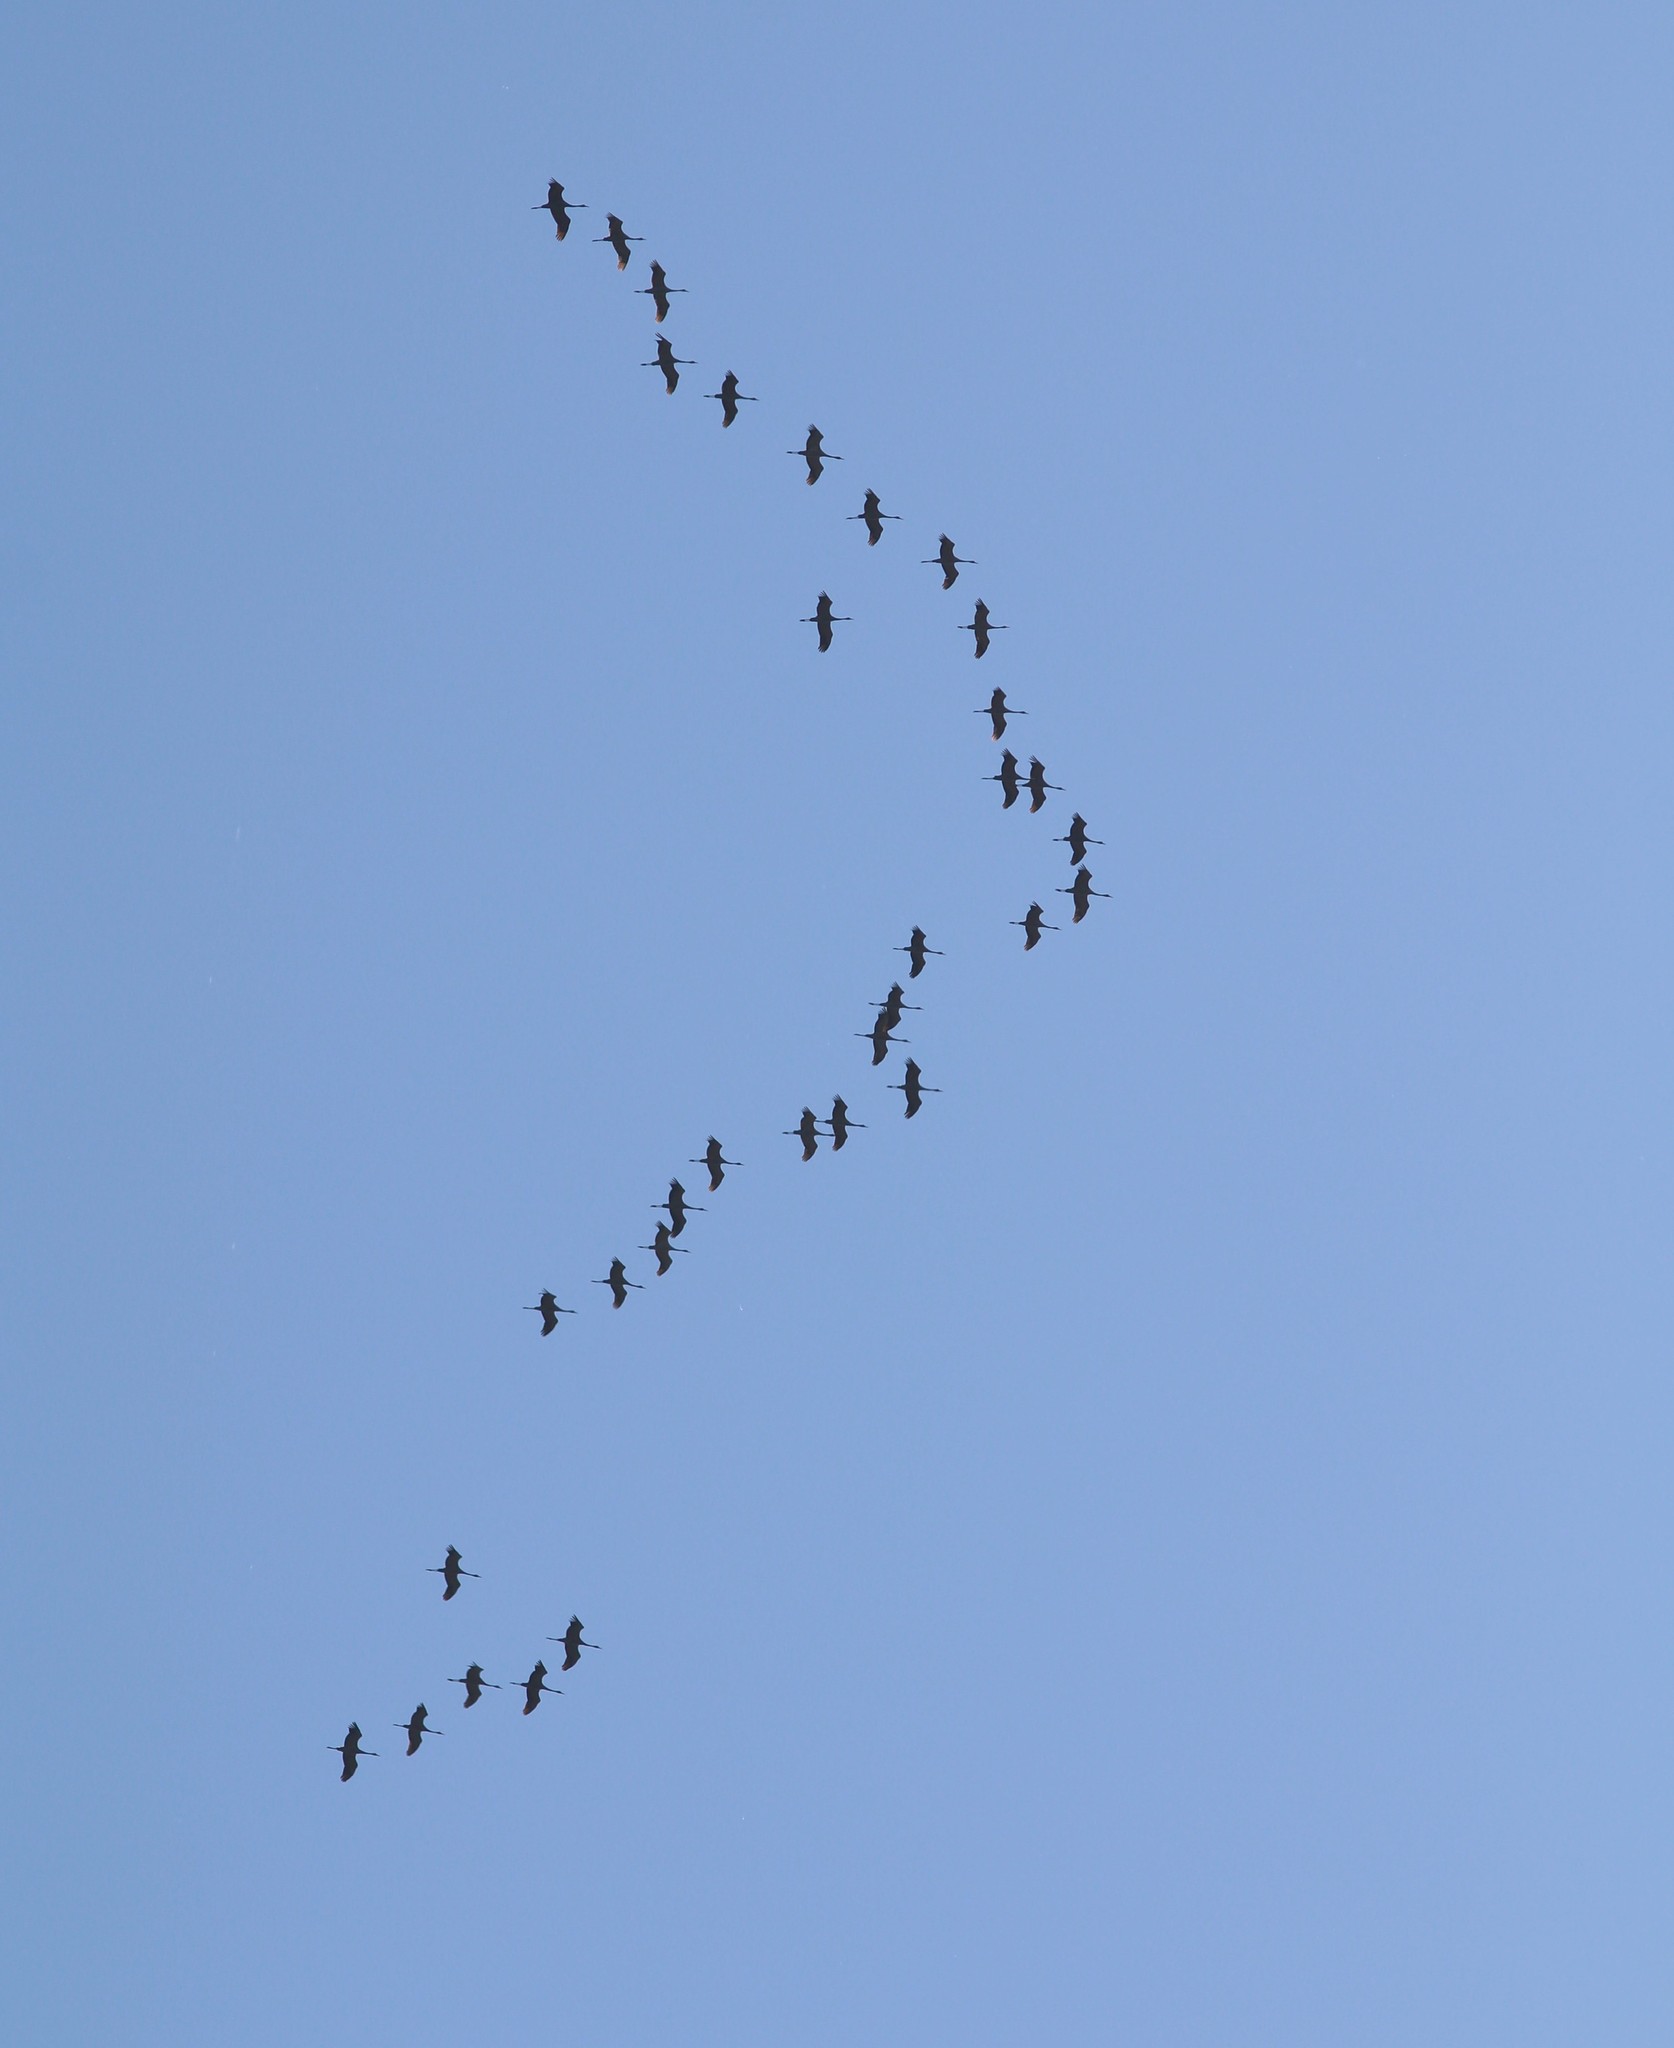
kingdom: Animalia
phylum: Chordata
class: Aves
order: Gruiformes
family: Gruidae
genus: Grus
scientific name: Grus grus
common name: Common crane
